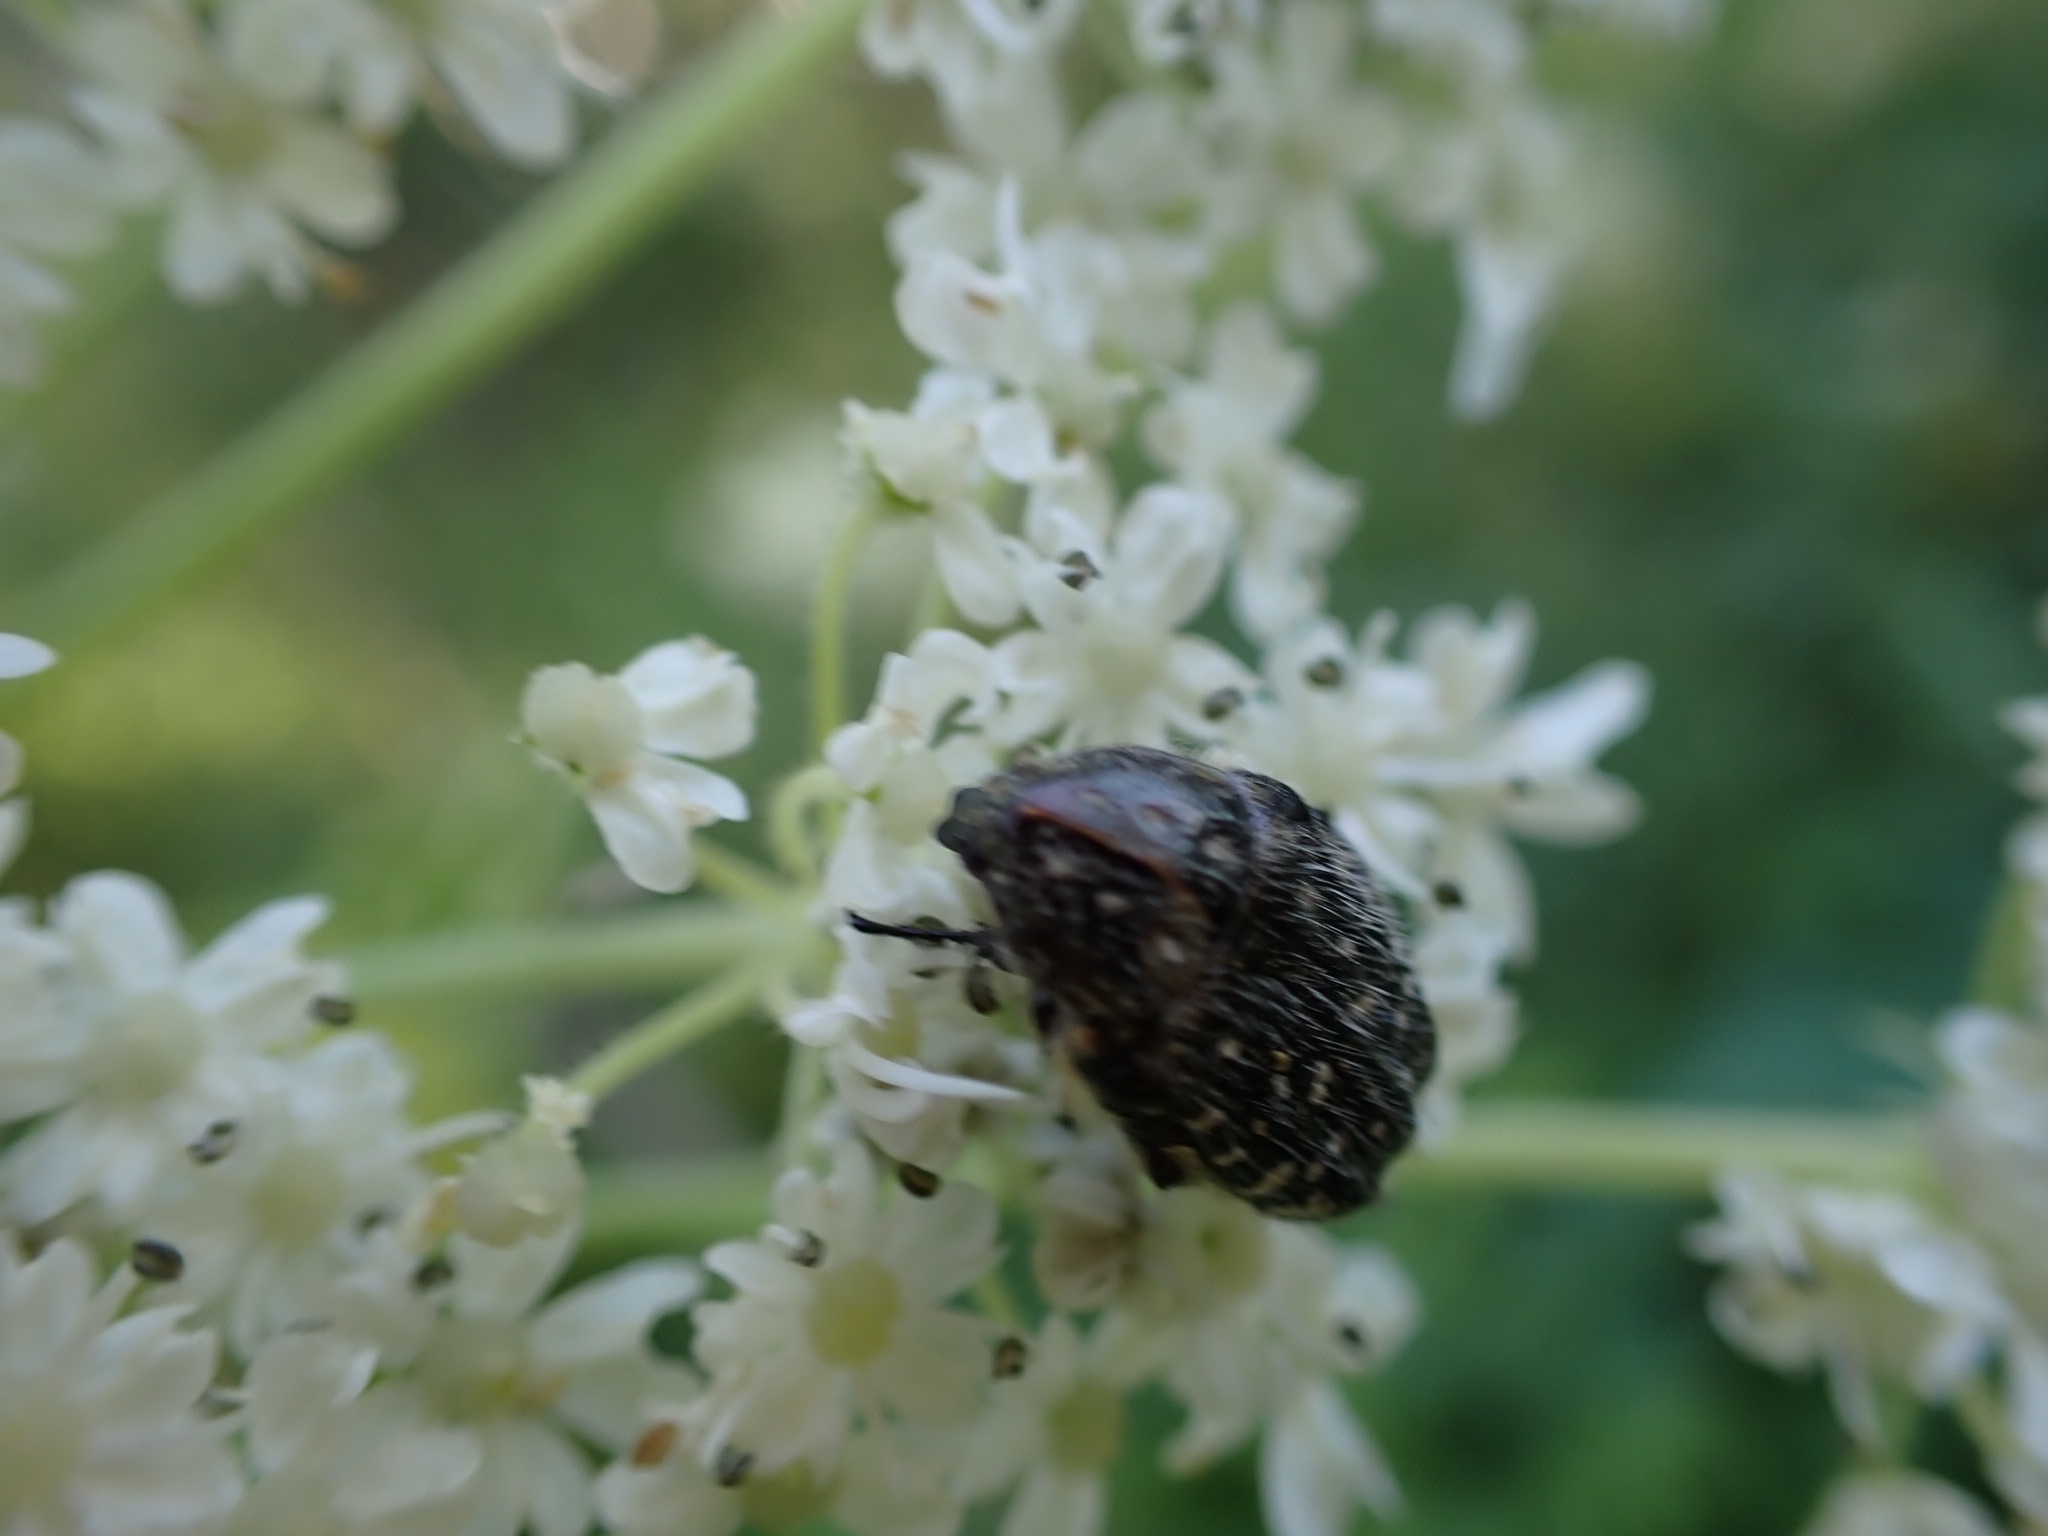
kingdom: Animalia
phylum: Arthropoda
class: Insecta
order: Coleoptera
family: Scarabaeidae
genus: Oxythyrea
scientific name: Oxythyrea funesta
